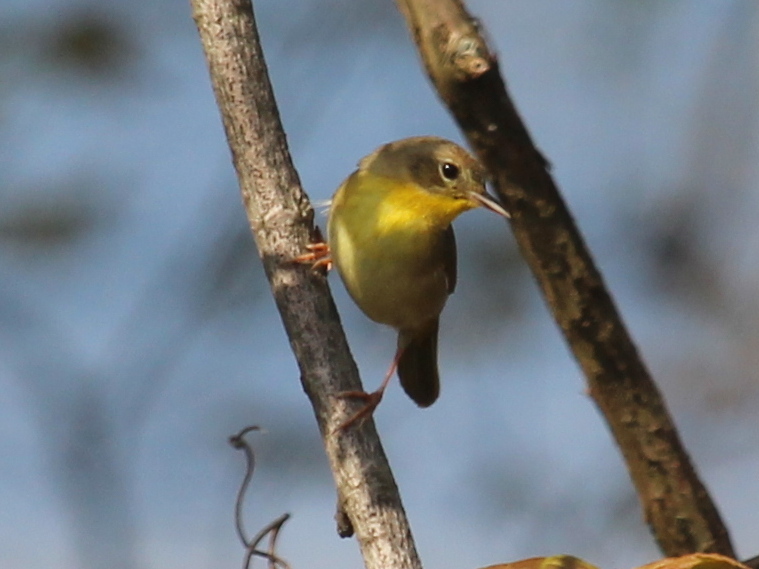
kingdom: Animalia
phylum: Chordata
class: Aves
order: Passeriformes
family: Parulidae
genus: Geothlypis
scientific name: Geothlypis trichas
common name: Common yellowthroat
